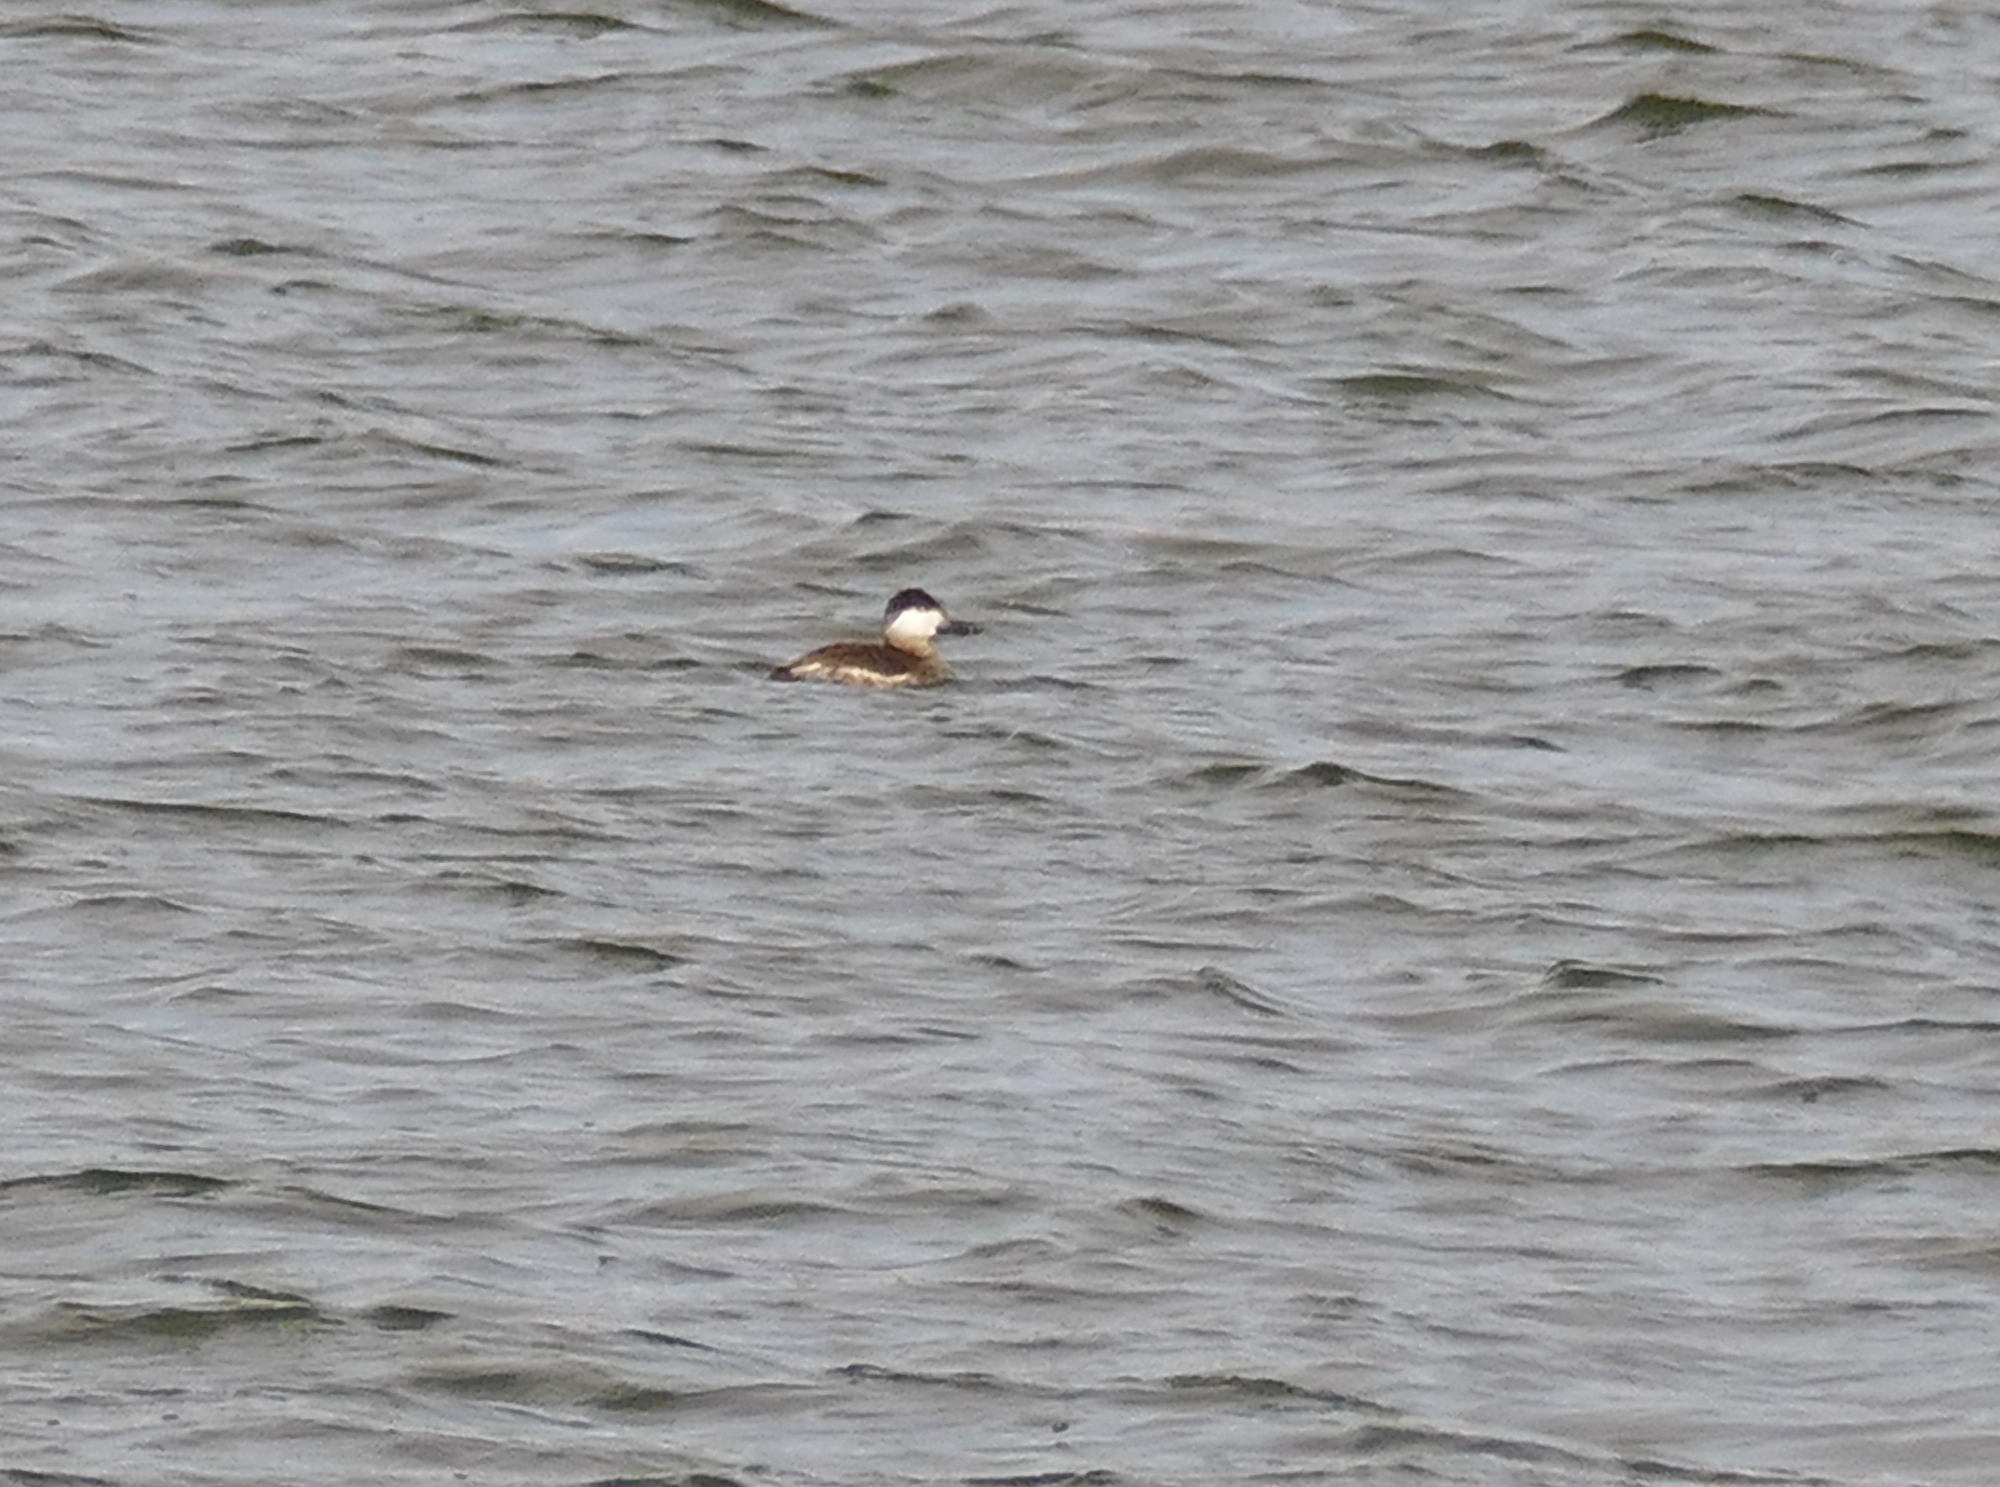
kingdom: Animalia
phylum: Chordata
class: Aves
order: Anseriformes
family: Anatidae
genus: Oxyura
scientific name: Oxyura jamaicensis
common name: Ruddy duck
